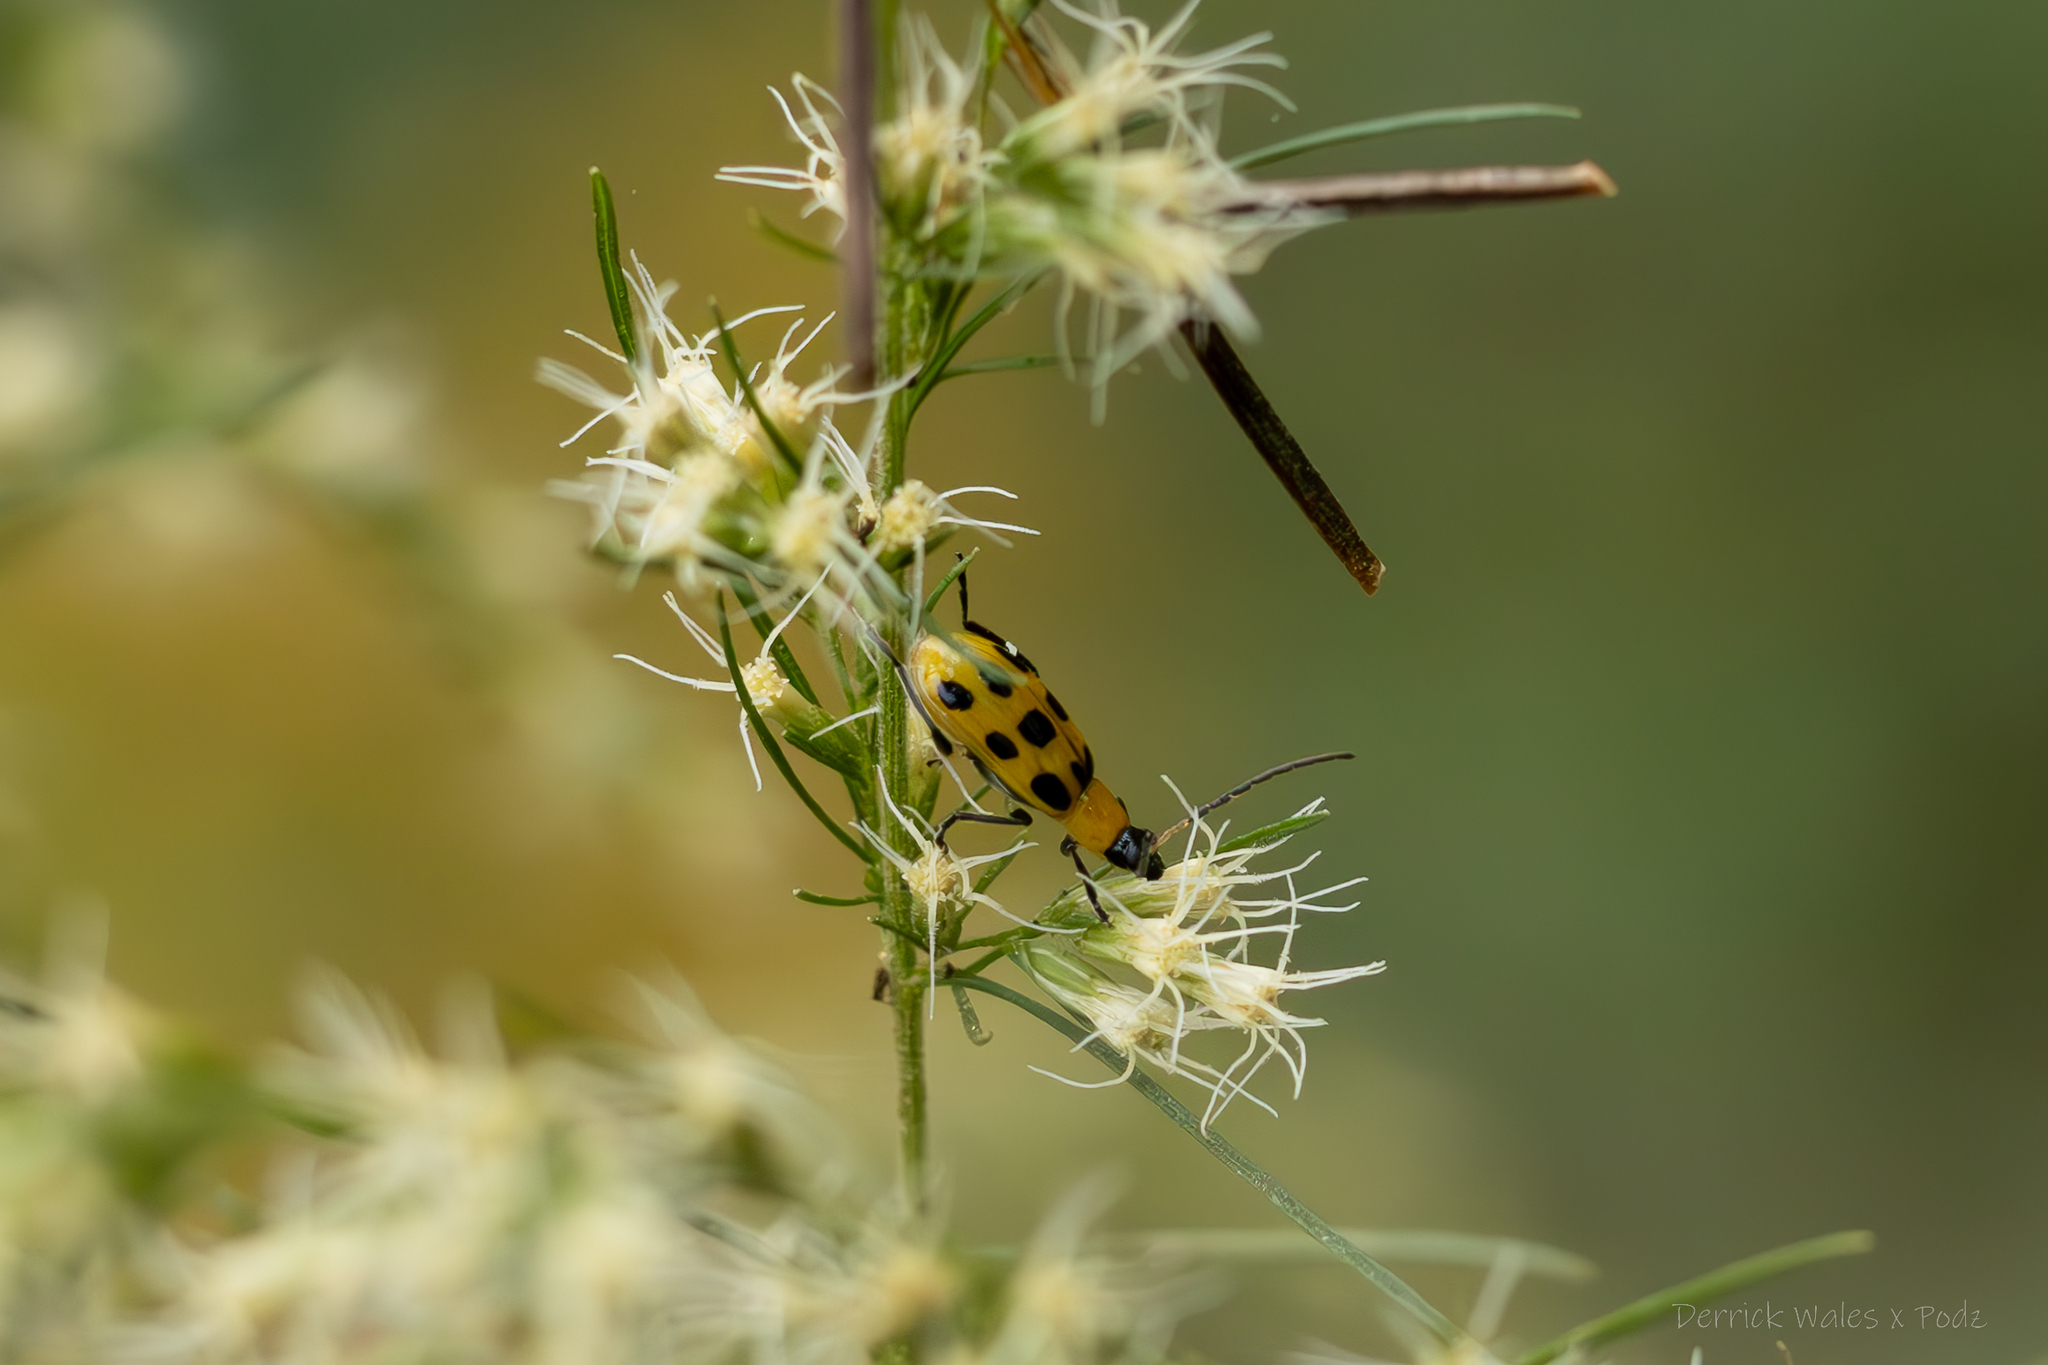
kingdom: Animalia
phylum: Arthropoda
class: Insecta
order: Coleoptera
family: Chrysomelidae
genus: Diabrotica
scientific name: Diabrotica undecimpunctata
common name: Spotted cucumber beetle
